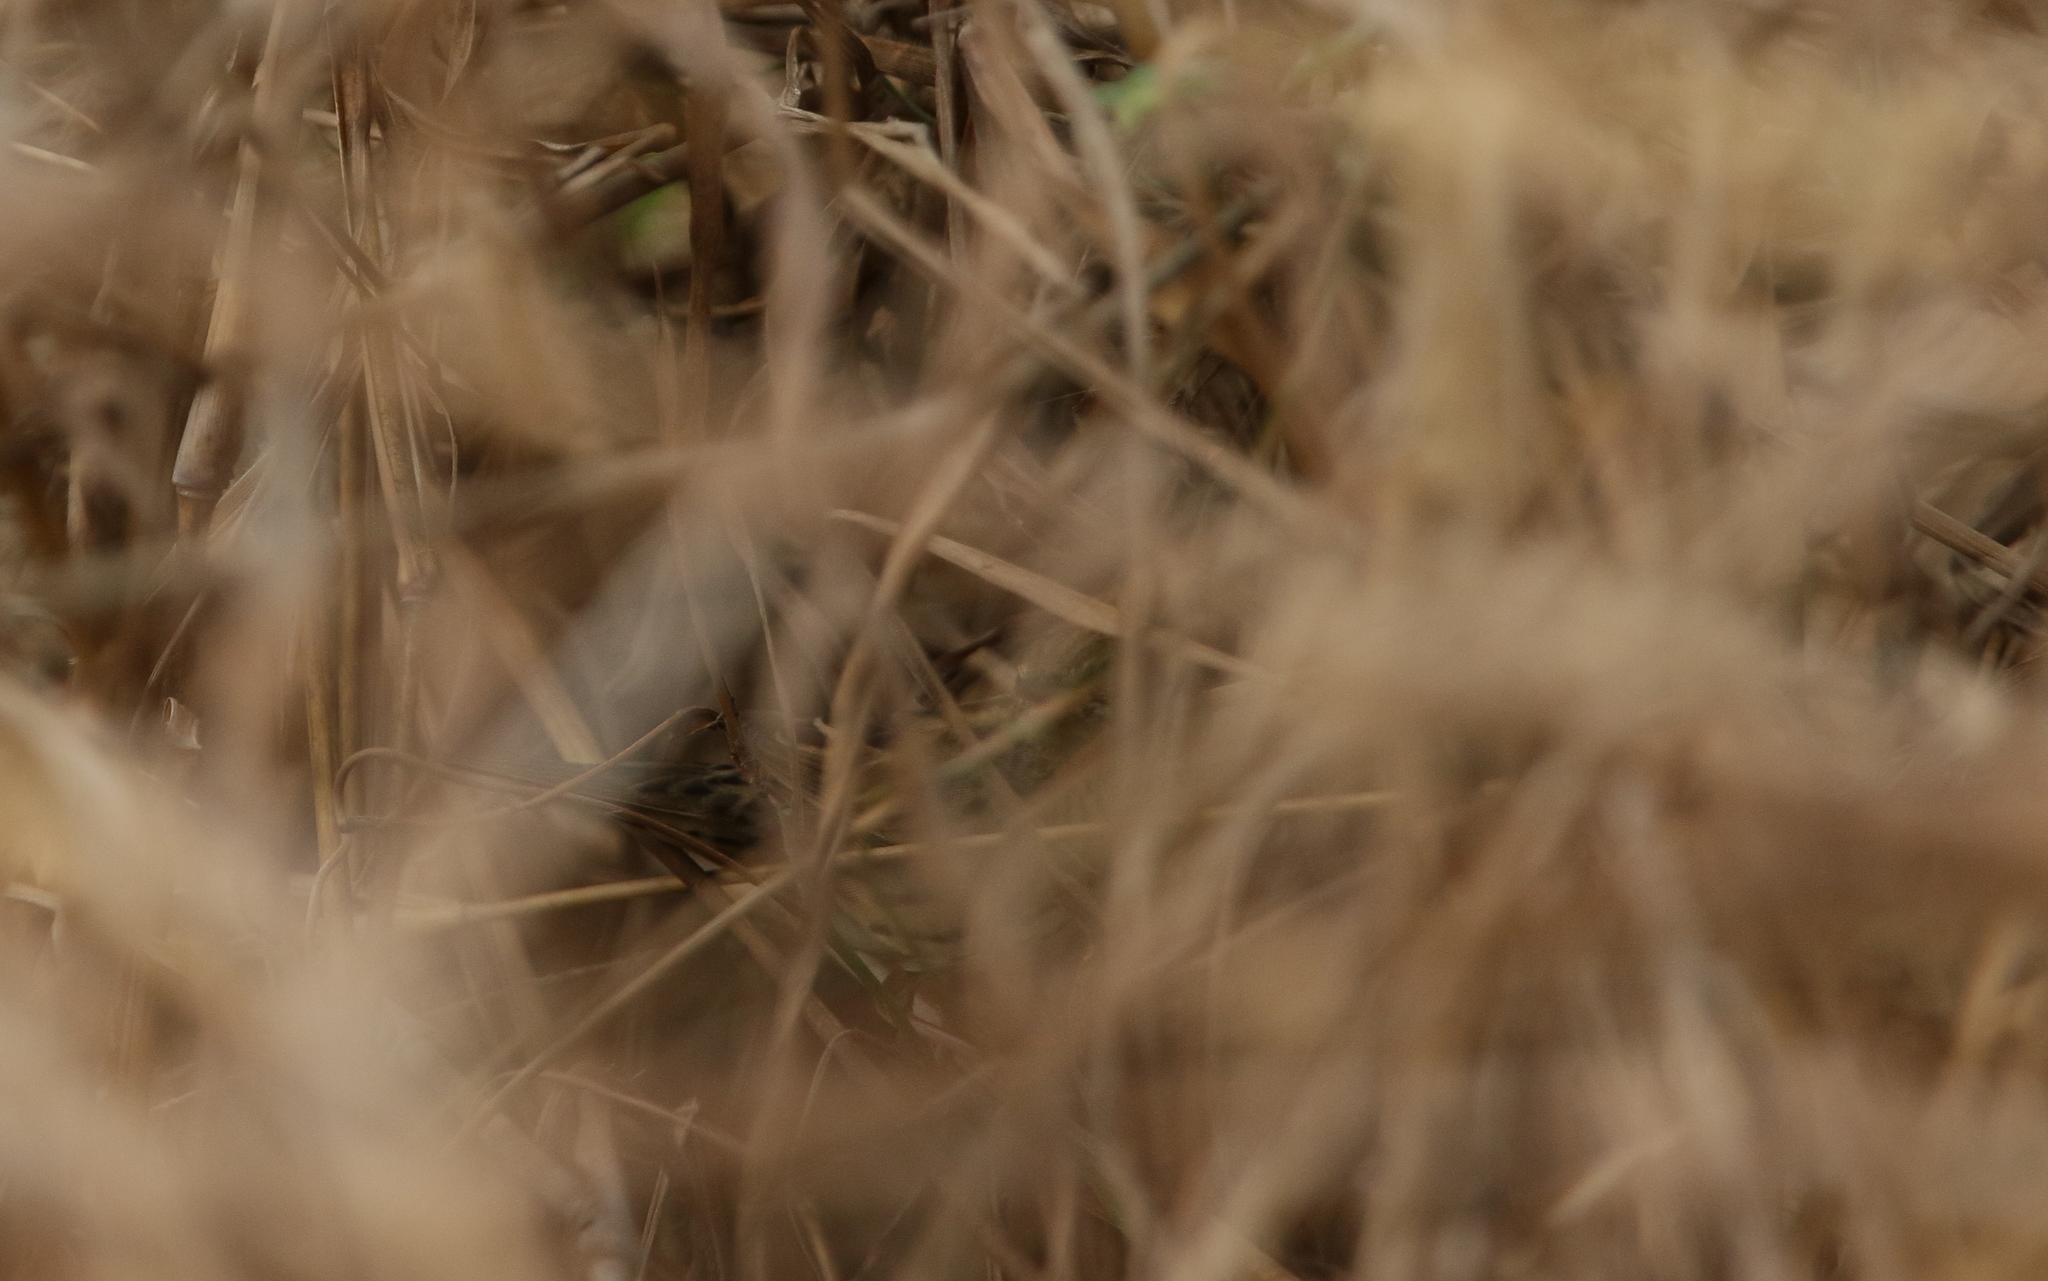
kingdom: Animalia
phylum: Chordata
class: Aves
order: Passeriformes
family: Locustellidae
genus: Locustella
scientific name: Locustella lanceolata
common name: Lanceolated warbler
